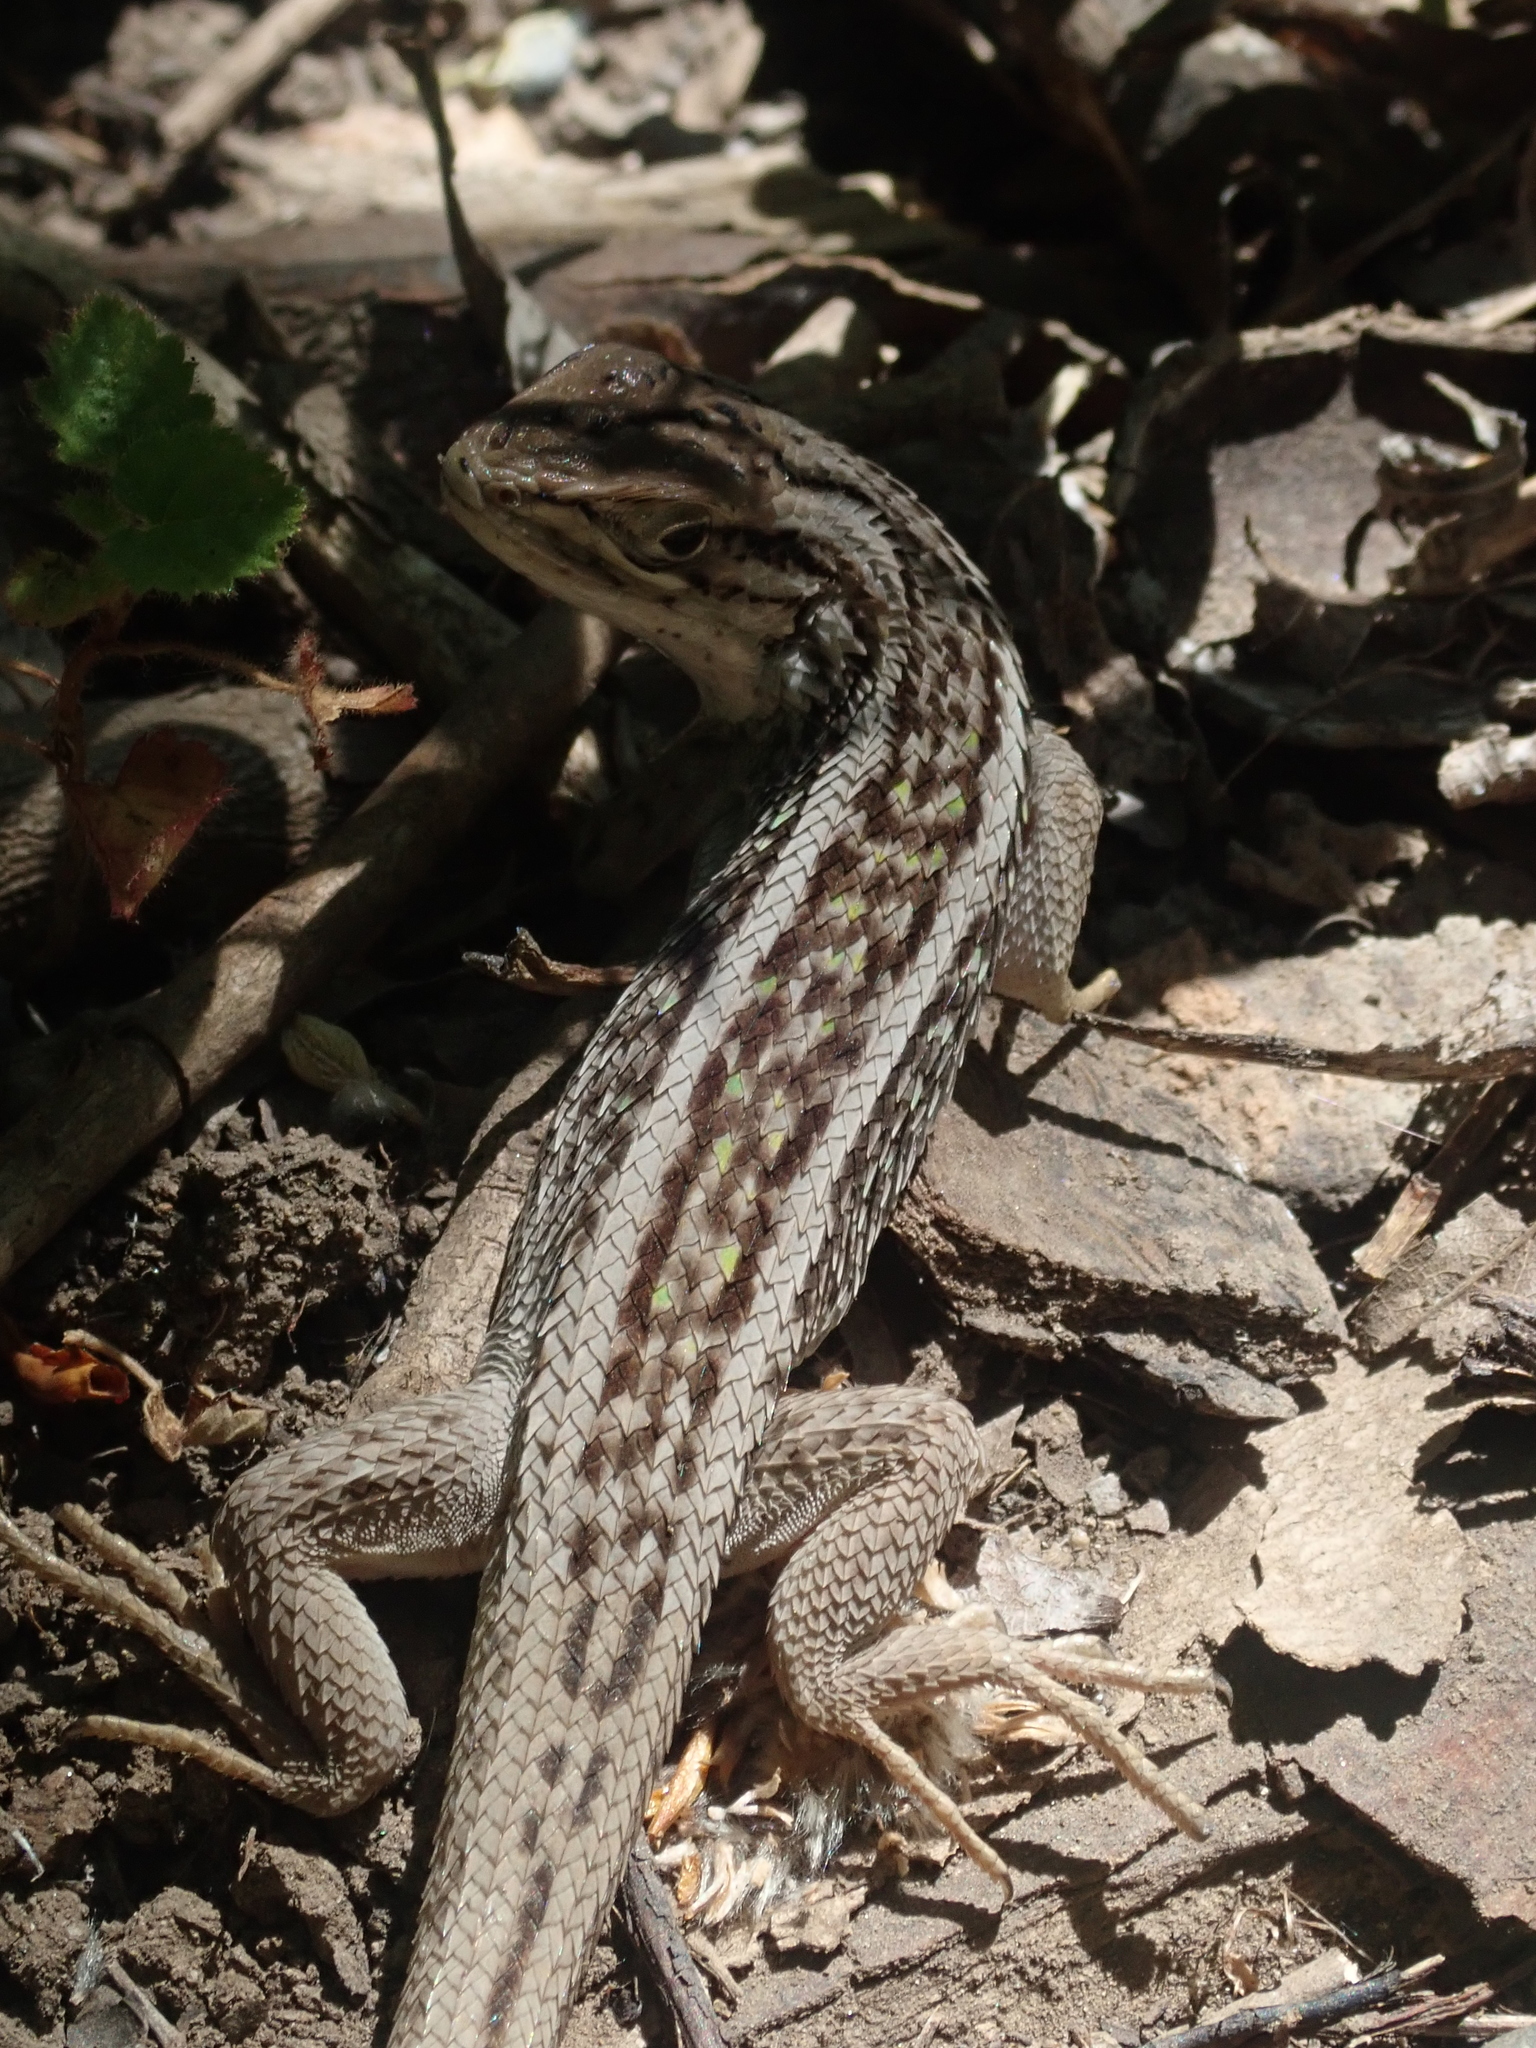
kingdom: Animalia
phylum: Chordata
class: Squamata
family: Liolaemidae
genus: Liolaemus
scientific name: Liolaemus chiliensis
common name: Chilean tree iguana
